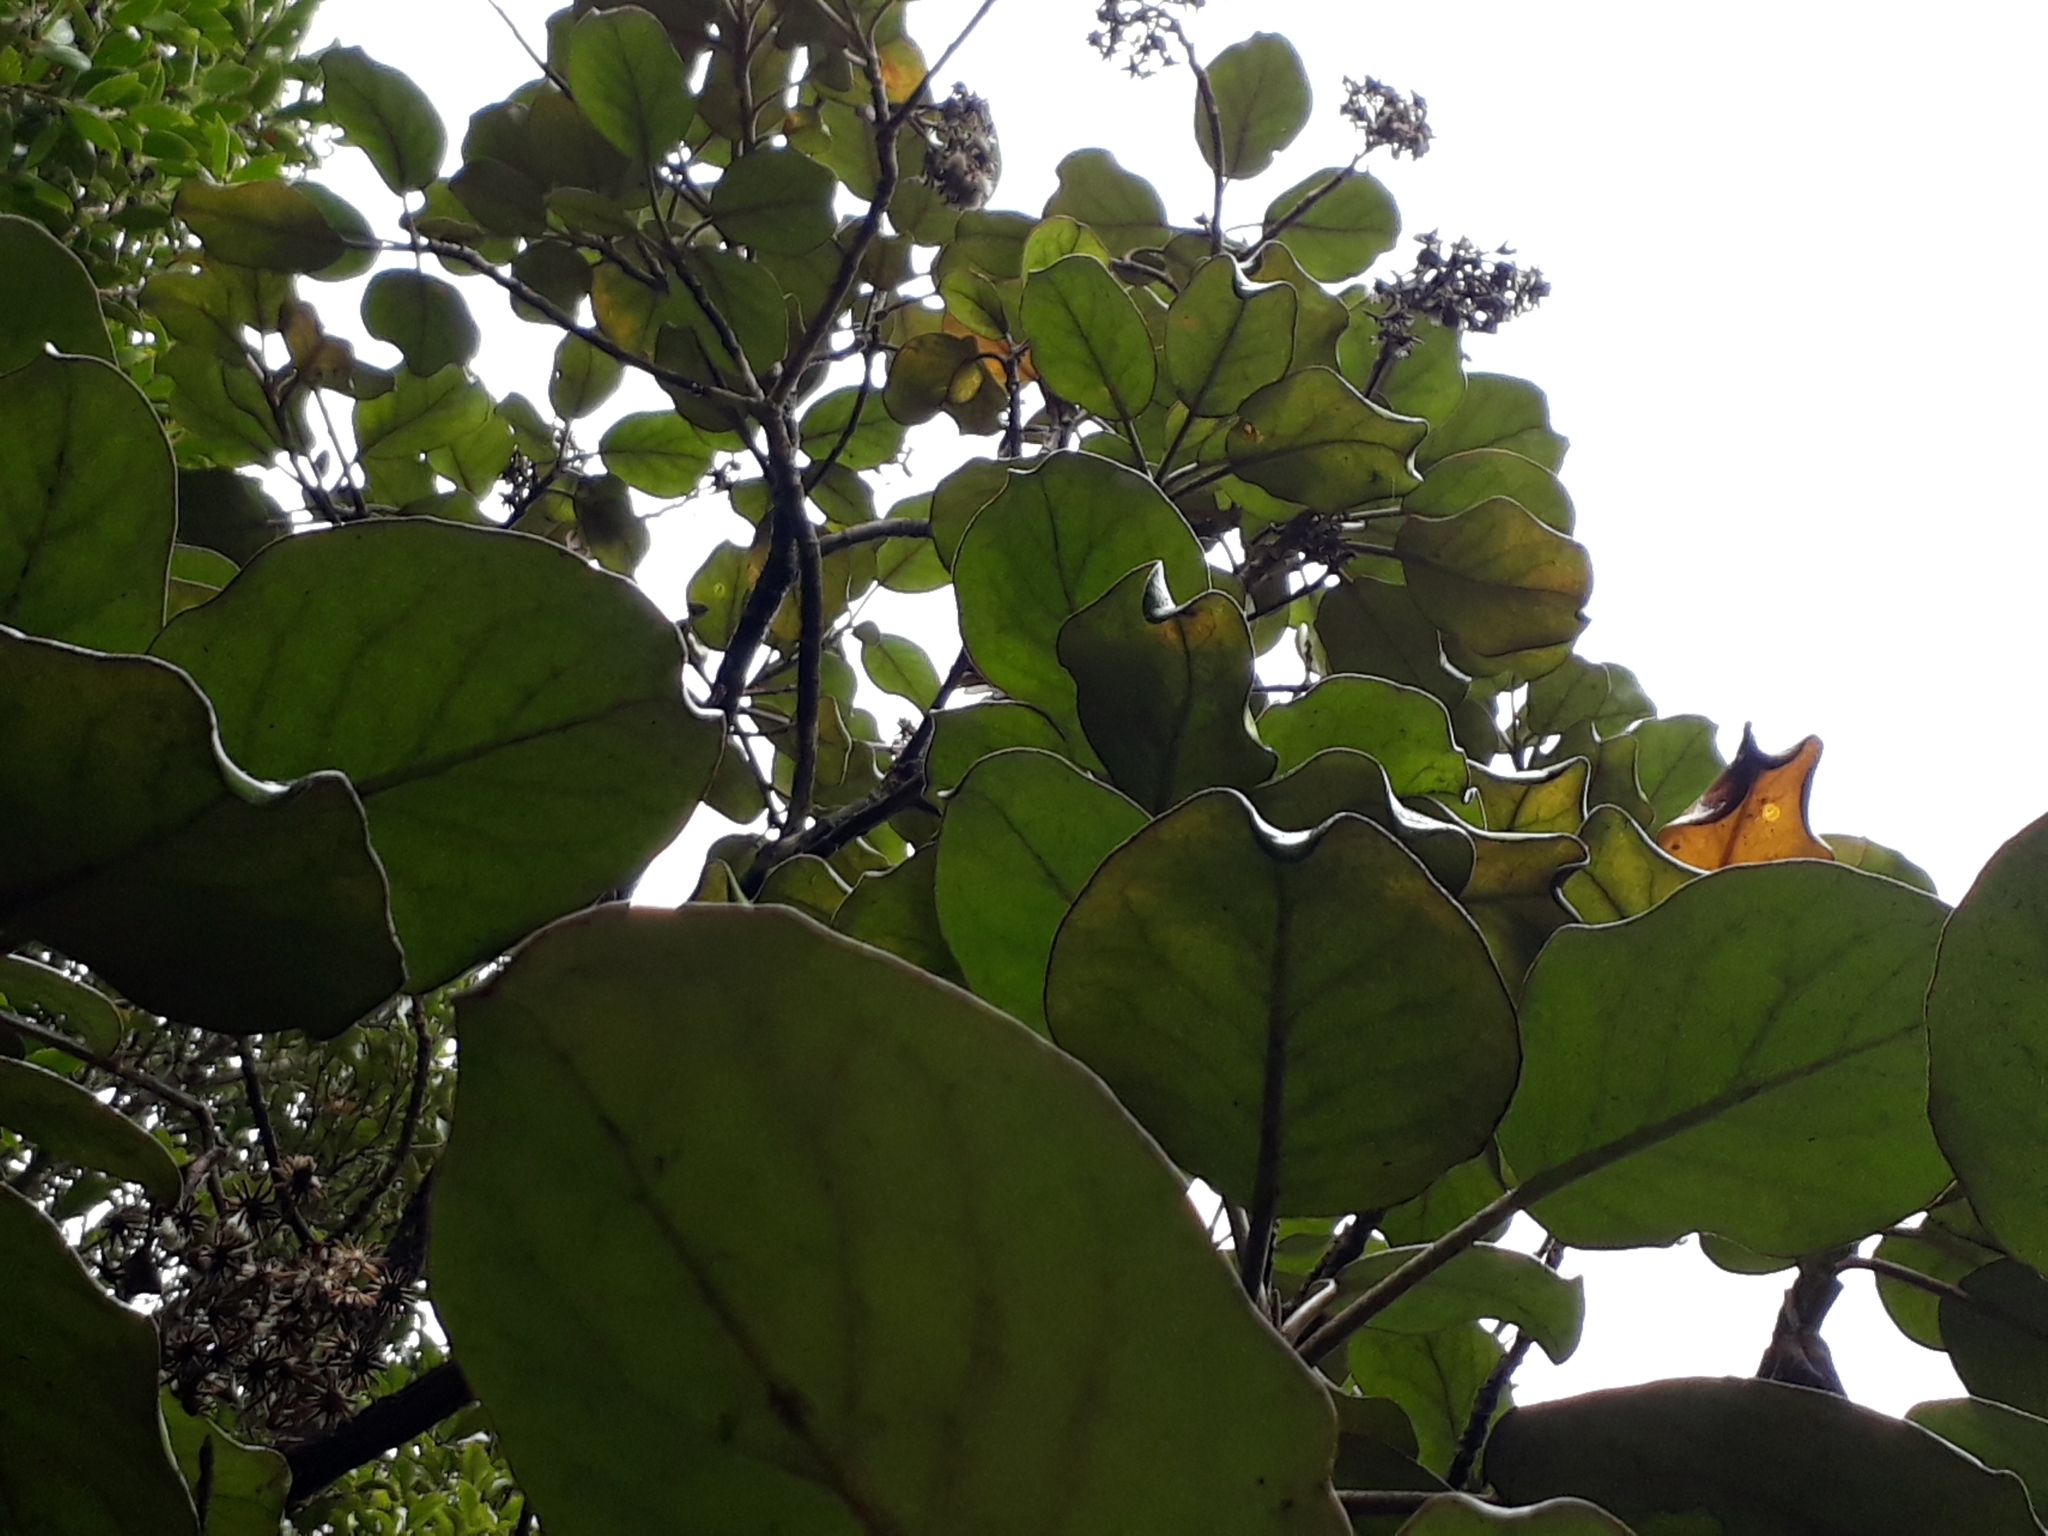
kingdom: Plantae
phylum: Tracheophyta
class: Magnoliopsida
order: Asterales
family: Asteraceae
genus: Brachyglottis
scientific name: Brachyglottis rotundifolia
